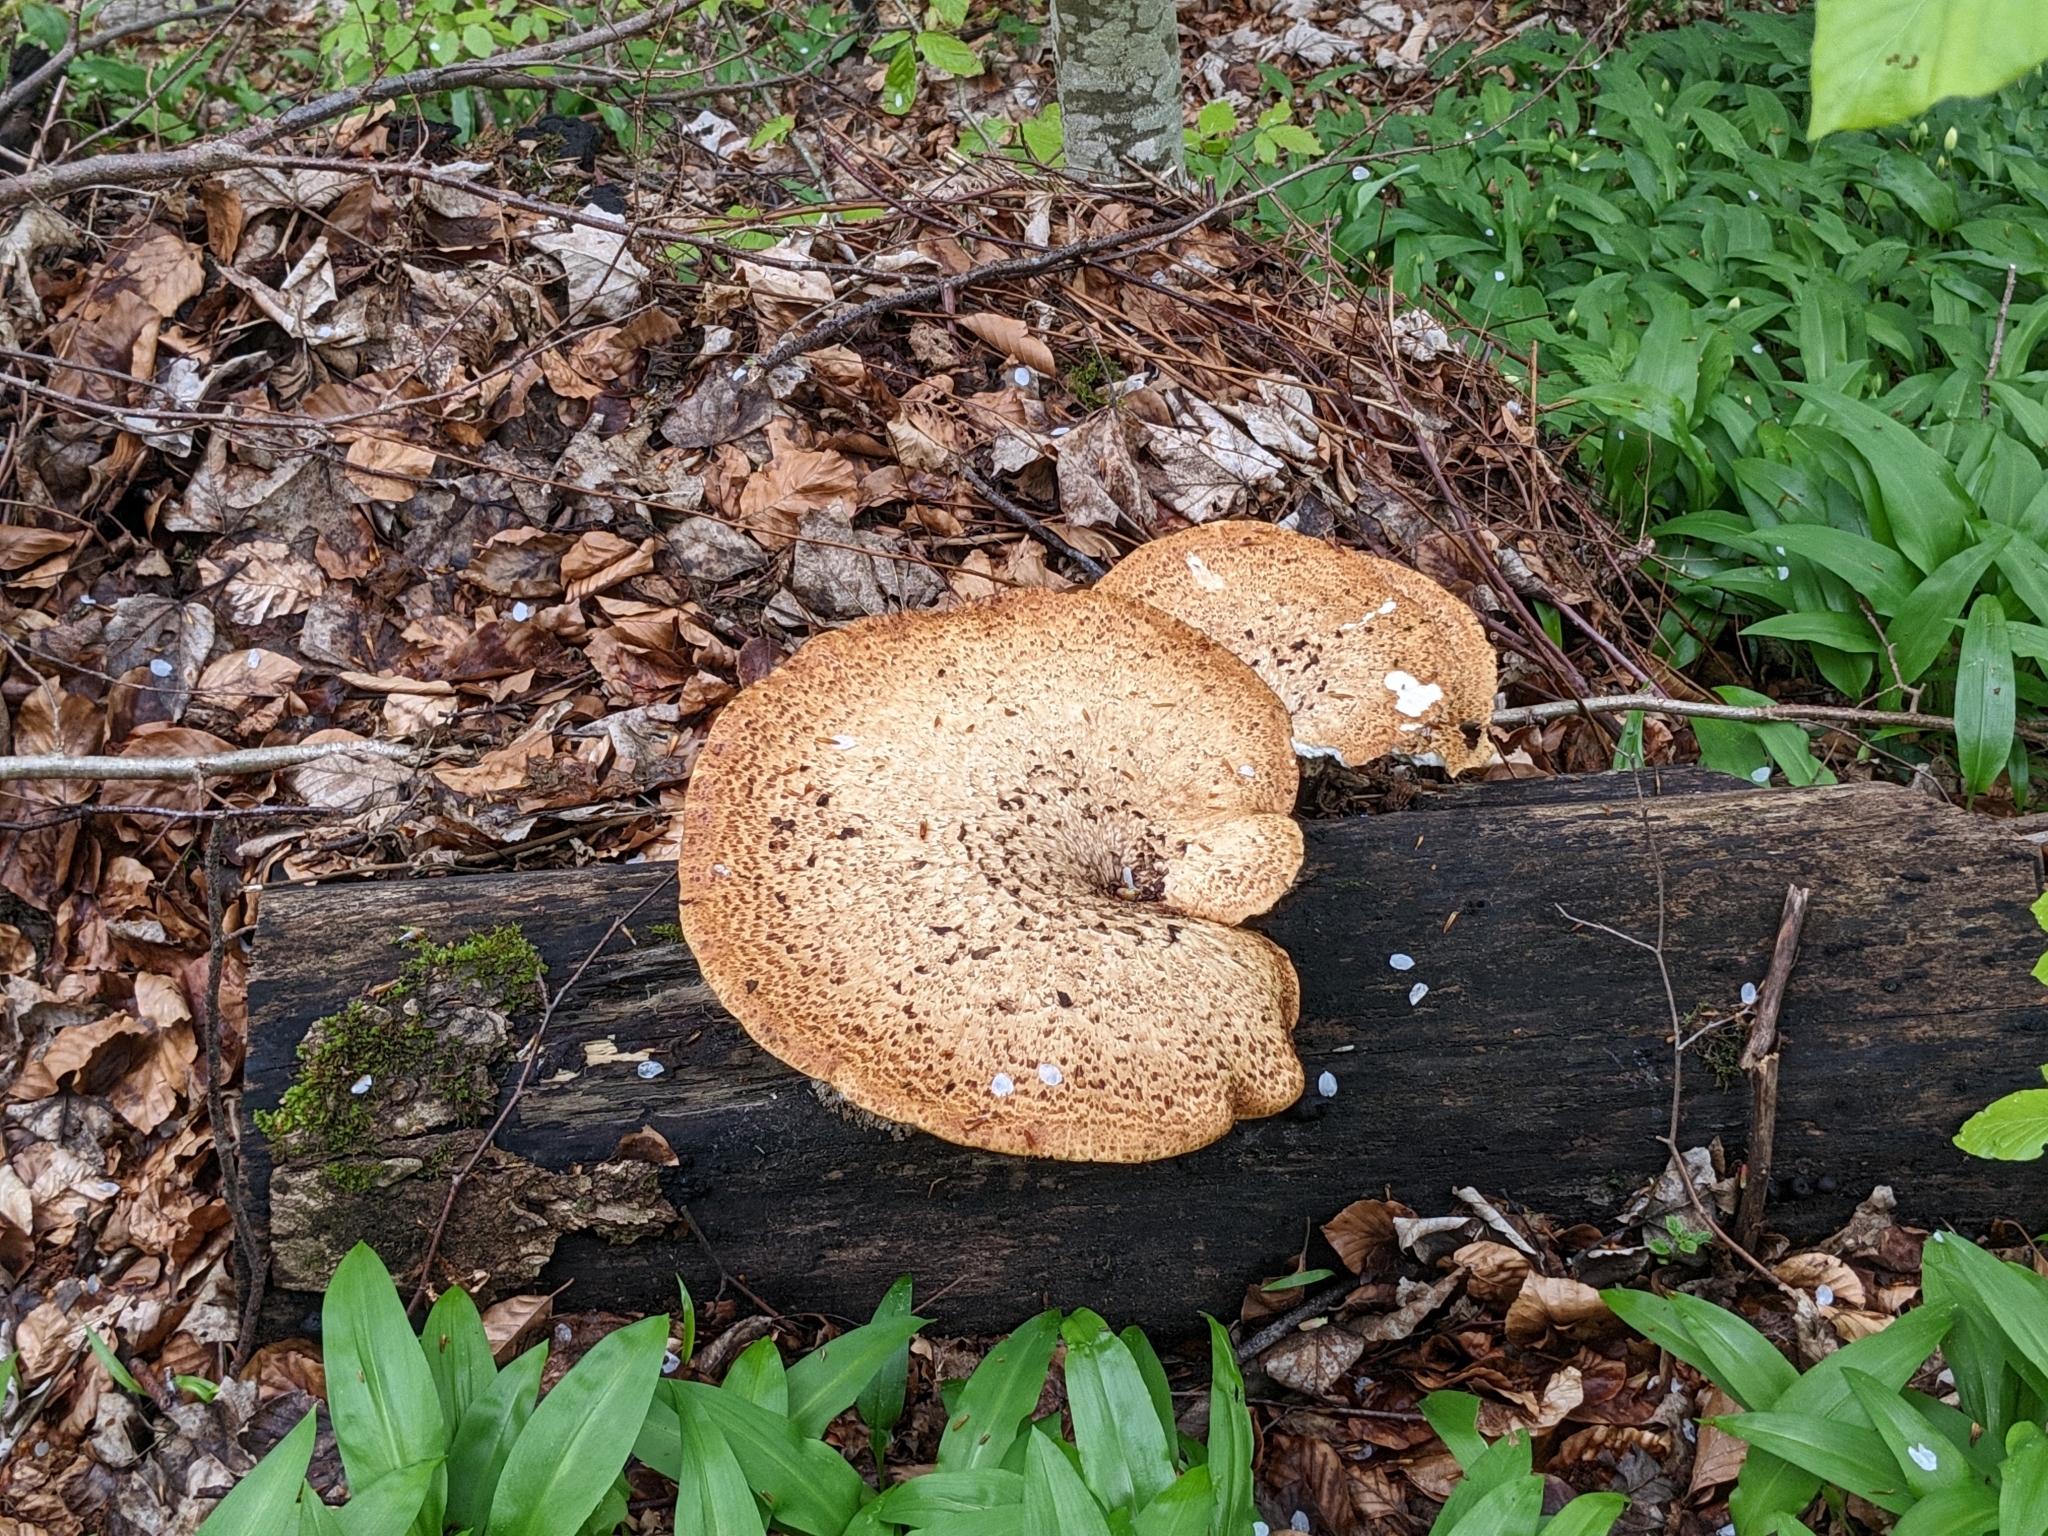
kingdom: Fungi
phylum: Basidiomycota
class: Agaricomycetes
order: Polyporales
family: Polyporaceae
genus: Cerioporus
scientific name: Cerioporus squamosus
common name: Dryad's saddle
